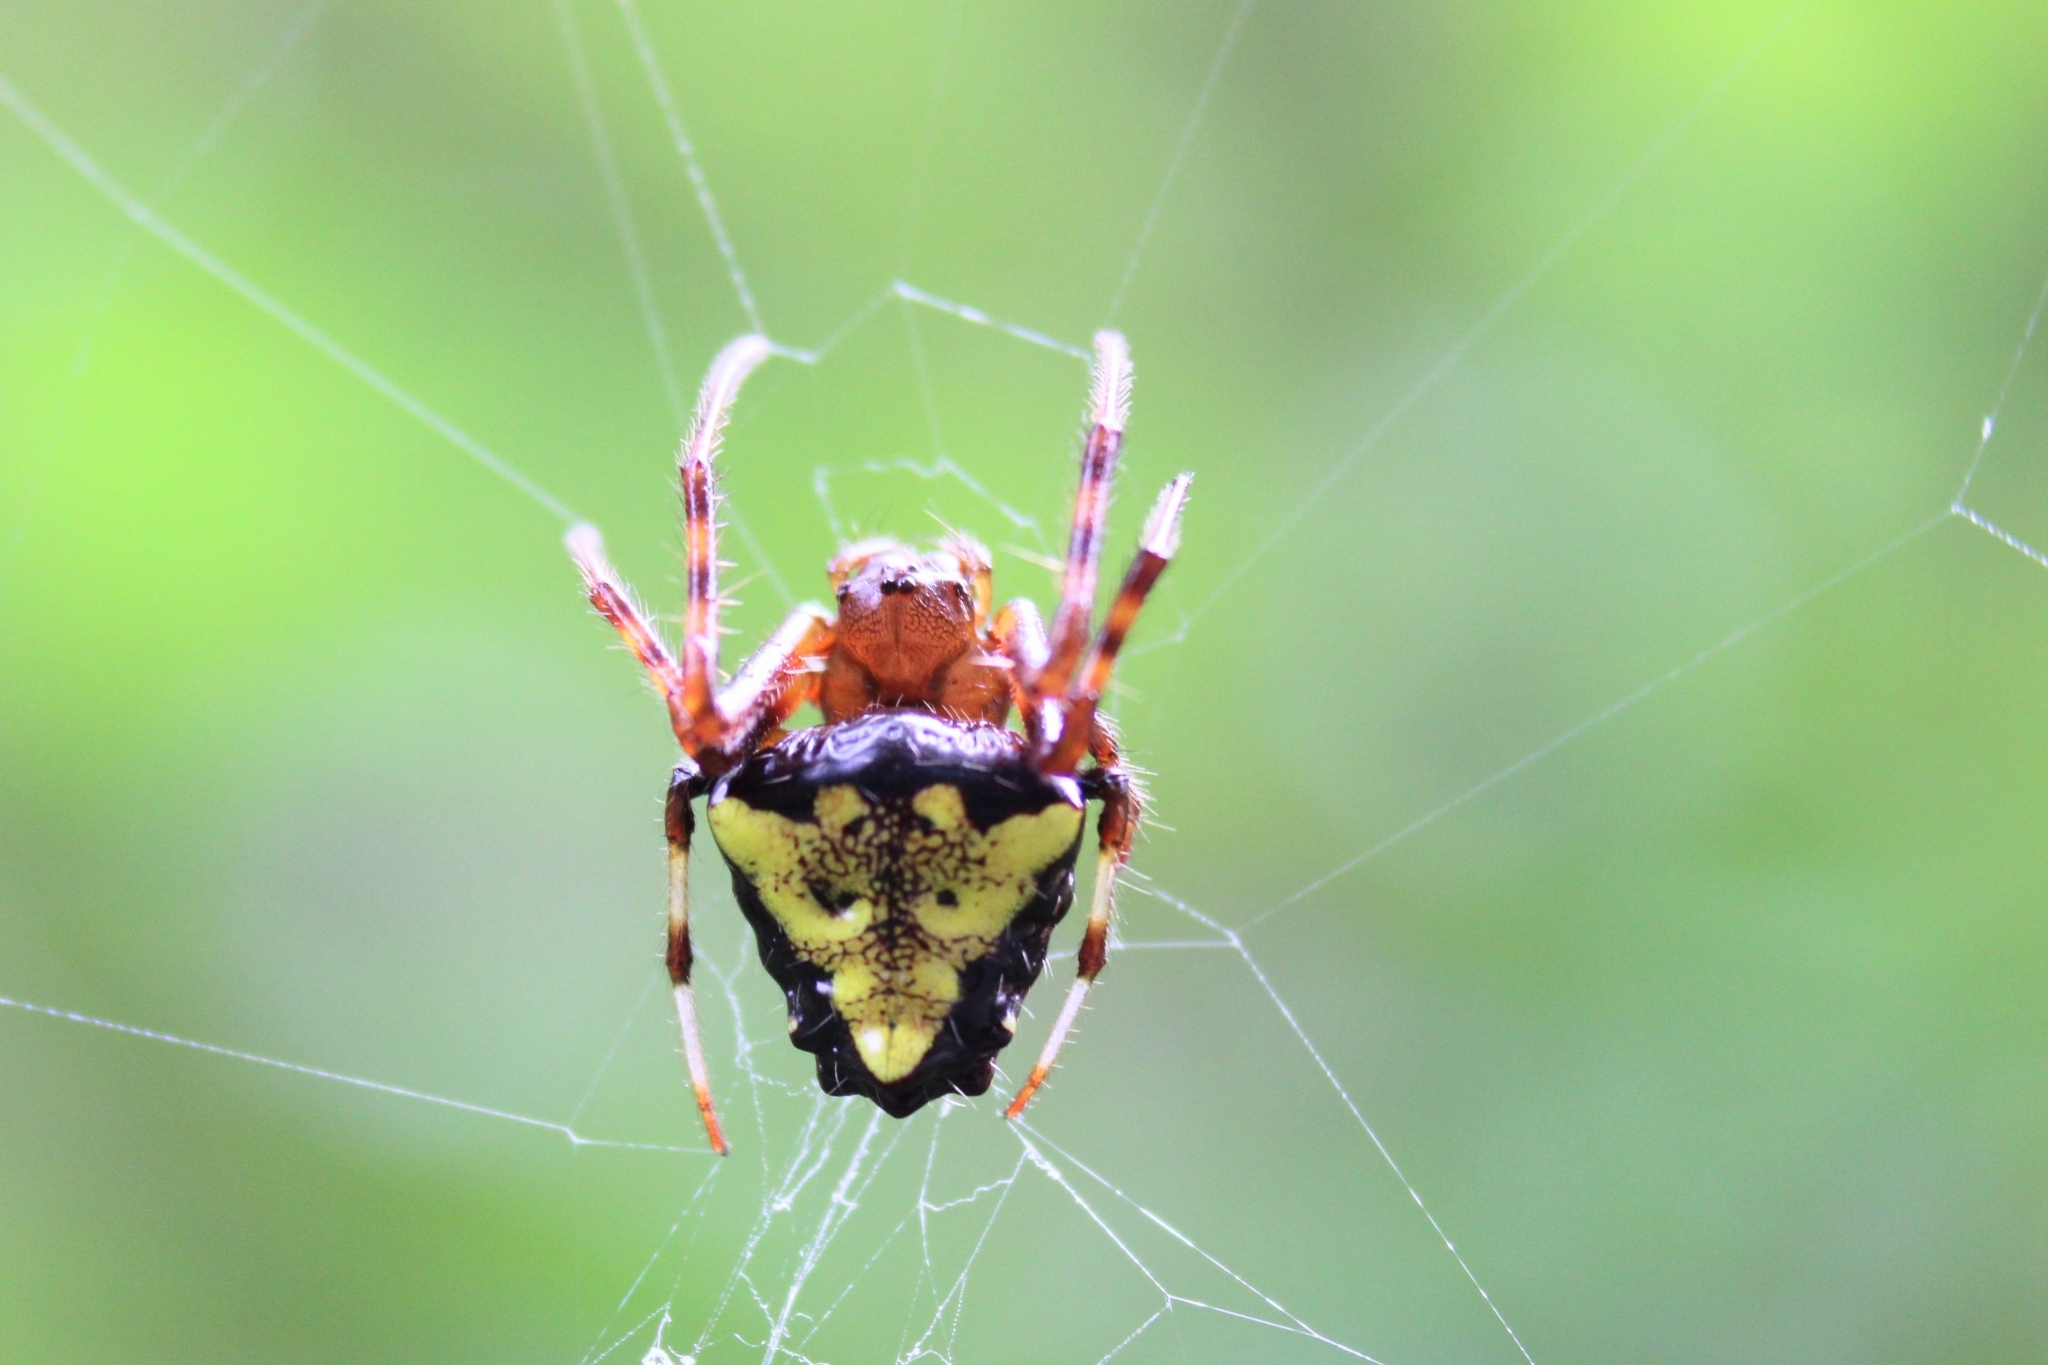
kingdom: Animalia
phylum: Arthropoda
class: Arachnida
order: Araneae
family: Araneidae
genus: Verrucosa
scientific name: Verrucosa arenata
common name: Orb weavers
